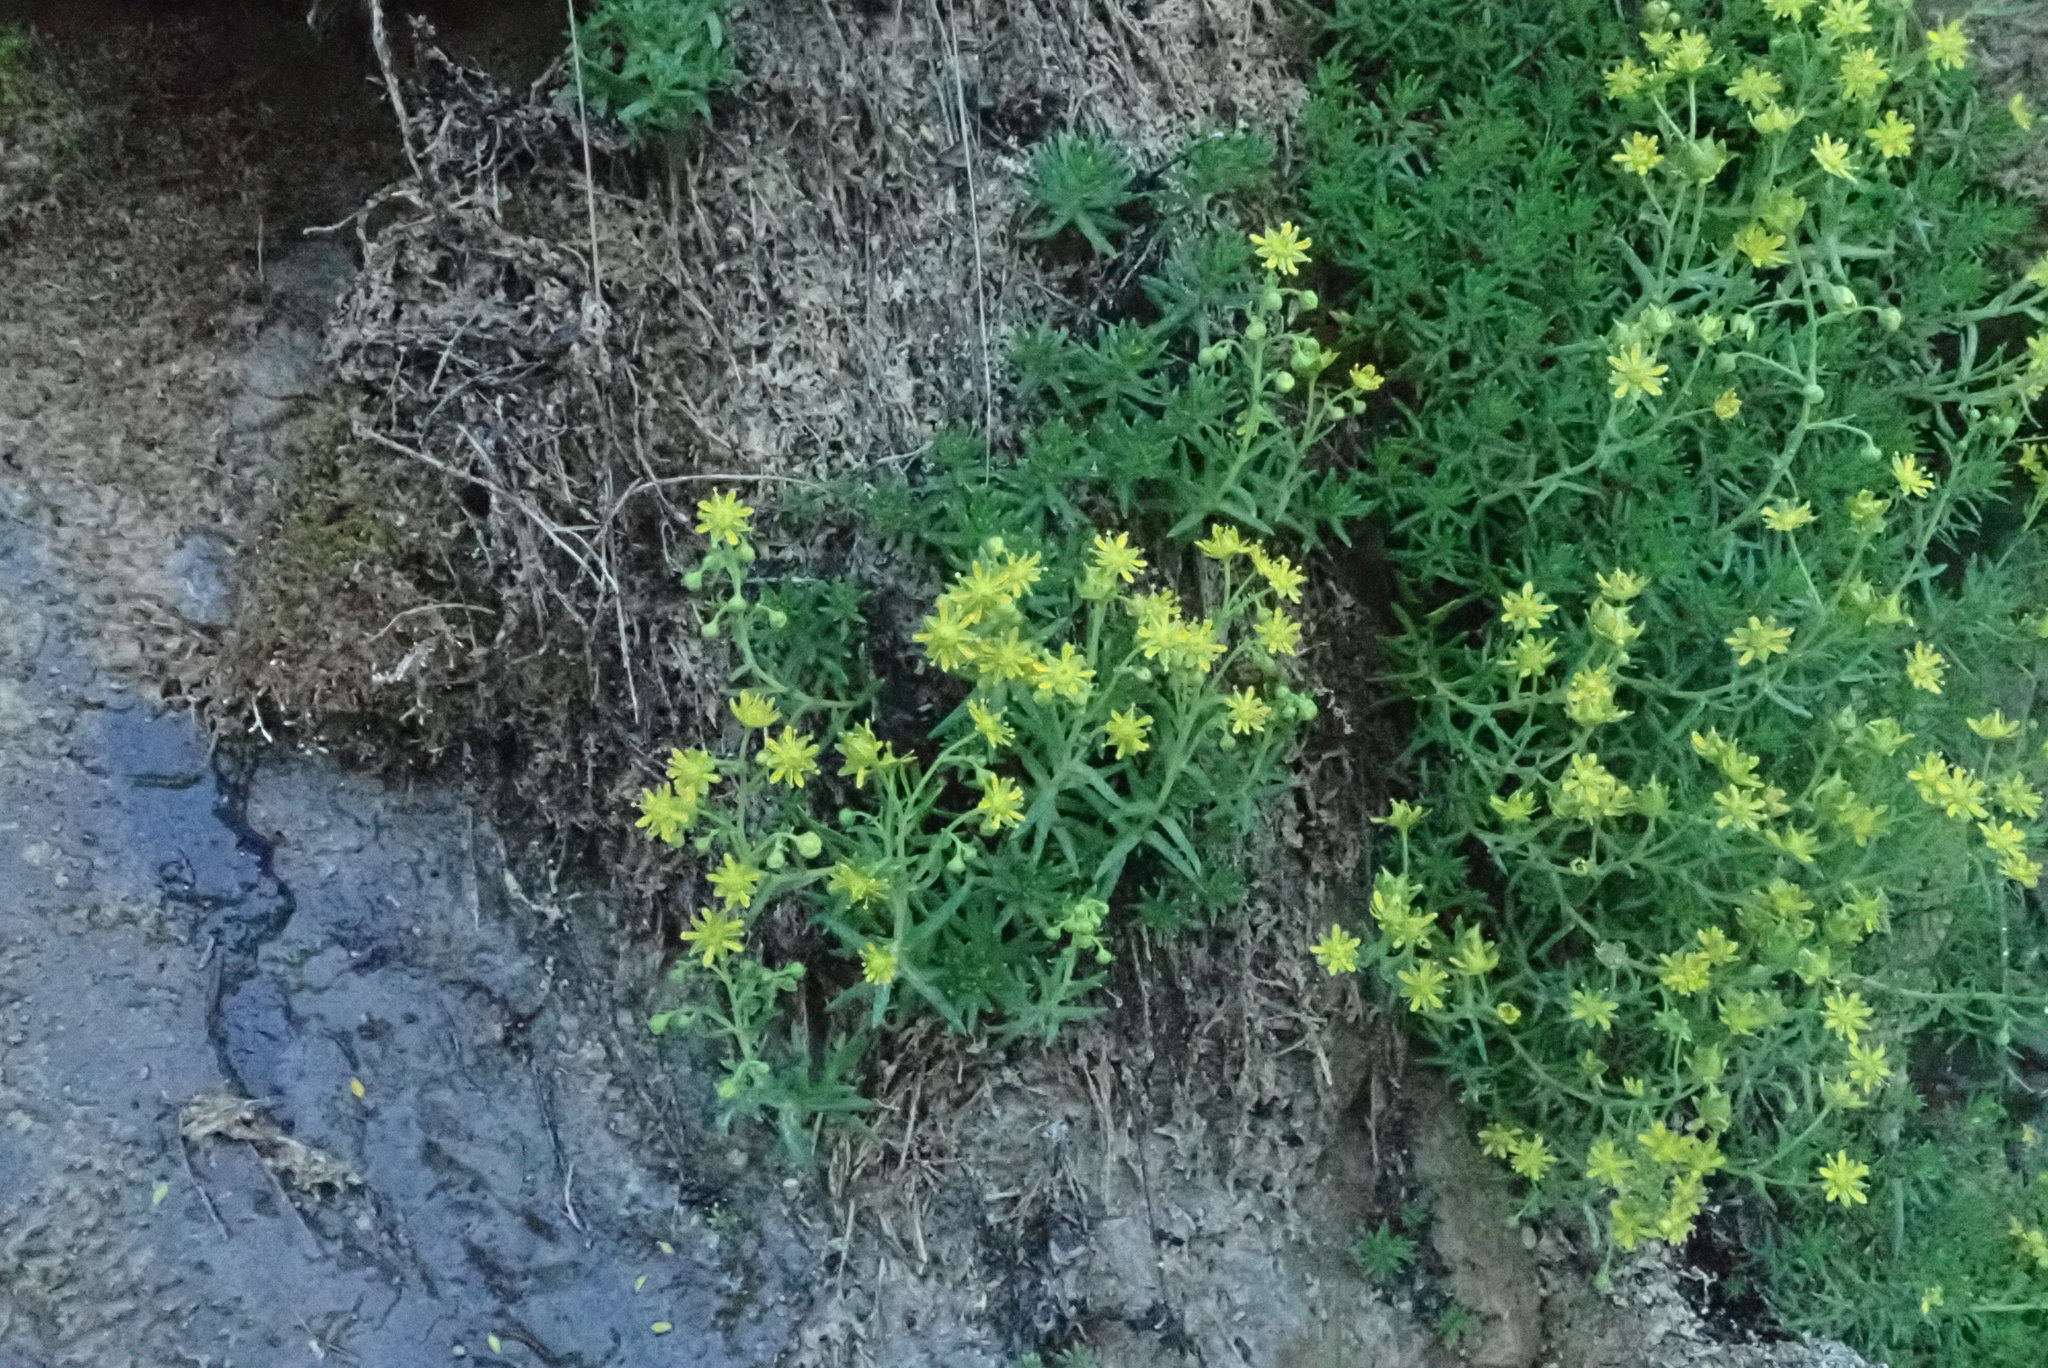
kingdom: Plantae
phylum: Tracheophyta
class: Magnoliopsida
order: Saxifragales
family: Saxifragaceae
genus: Saxifraga
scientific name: Saxifraga aizoides
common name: Yellow mountain saxifrage
